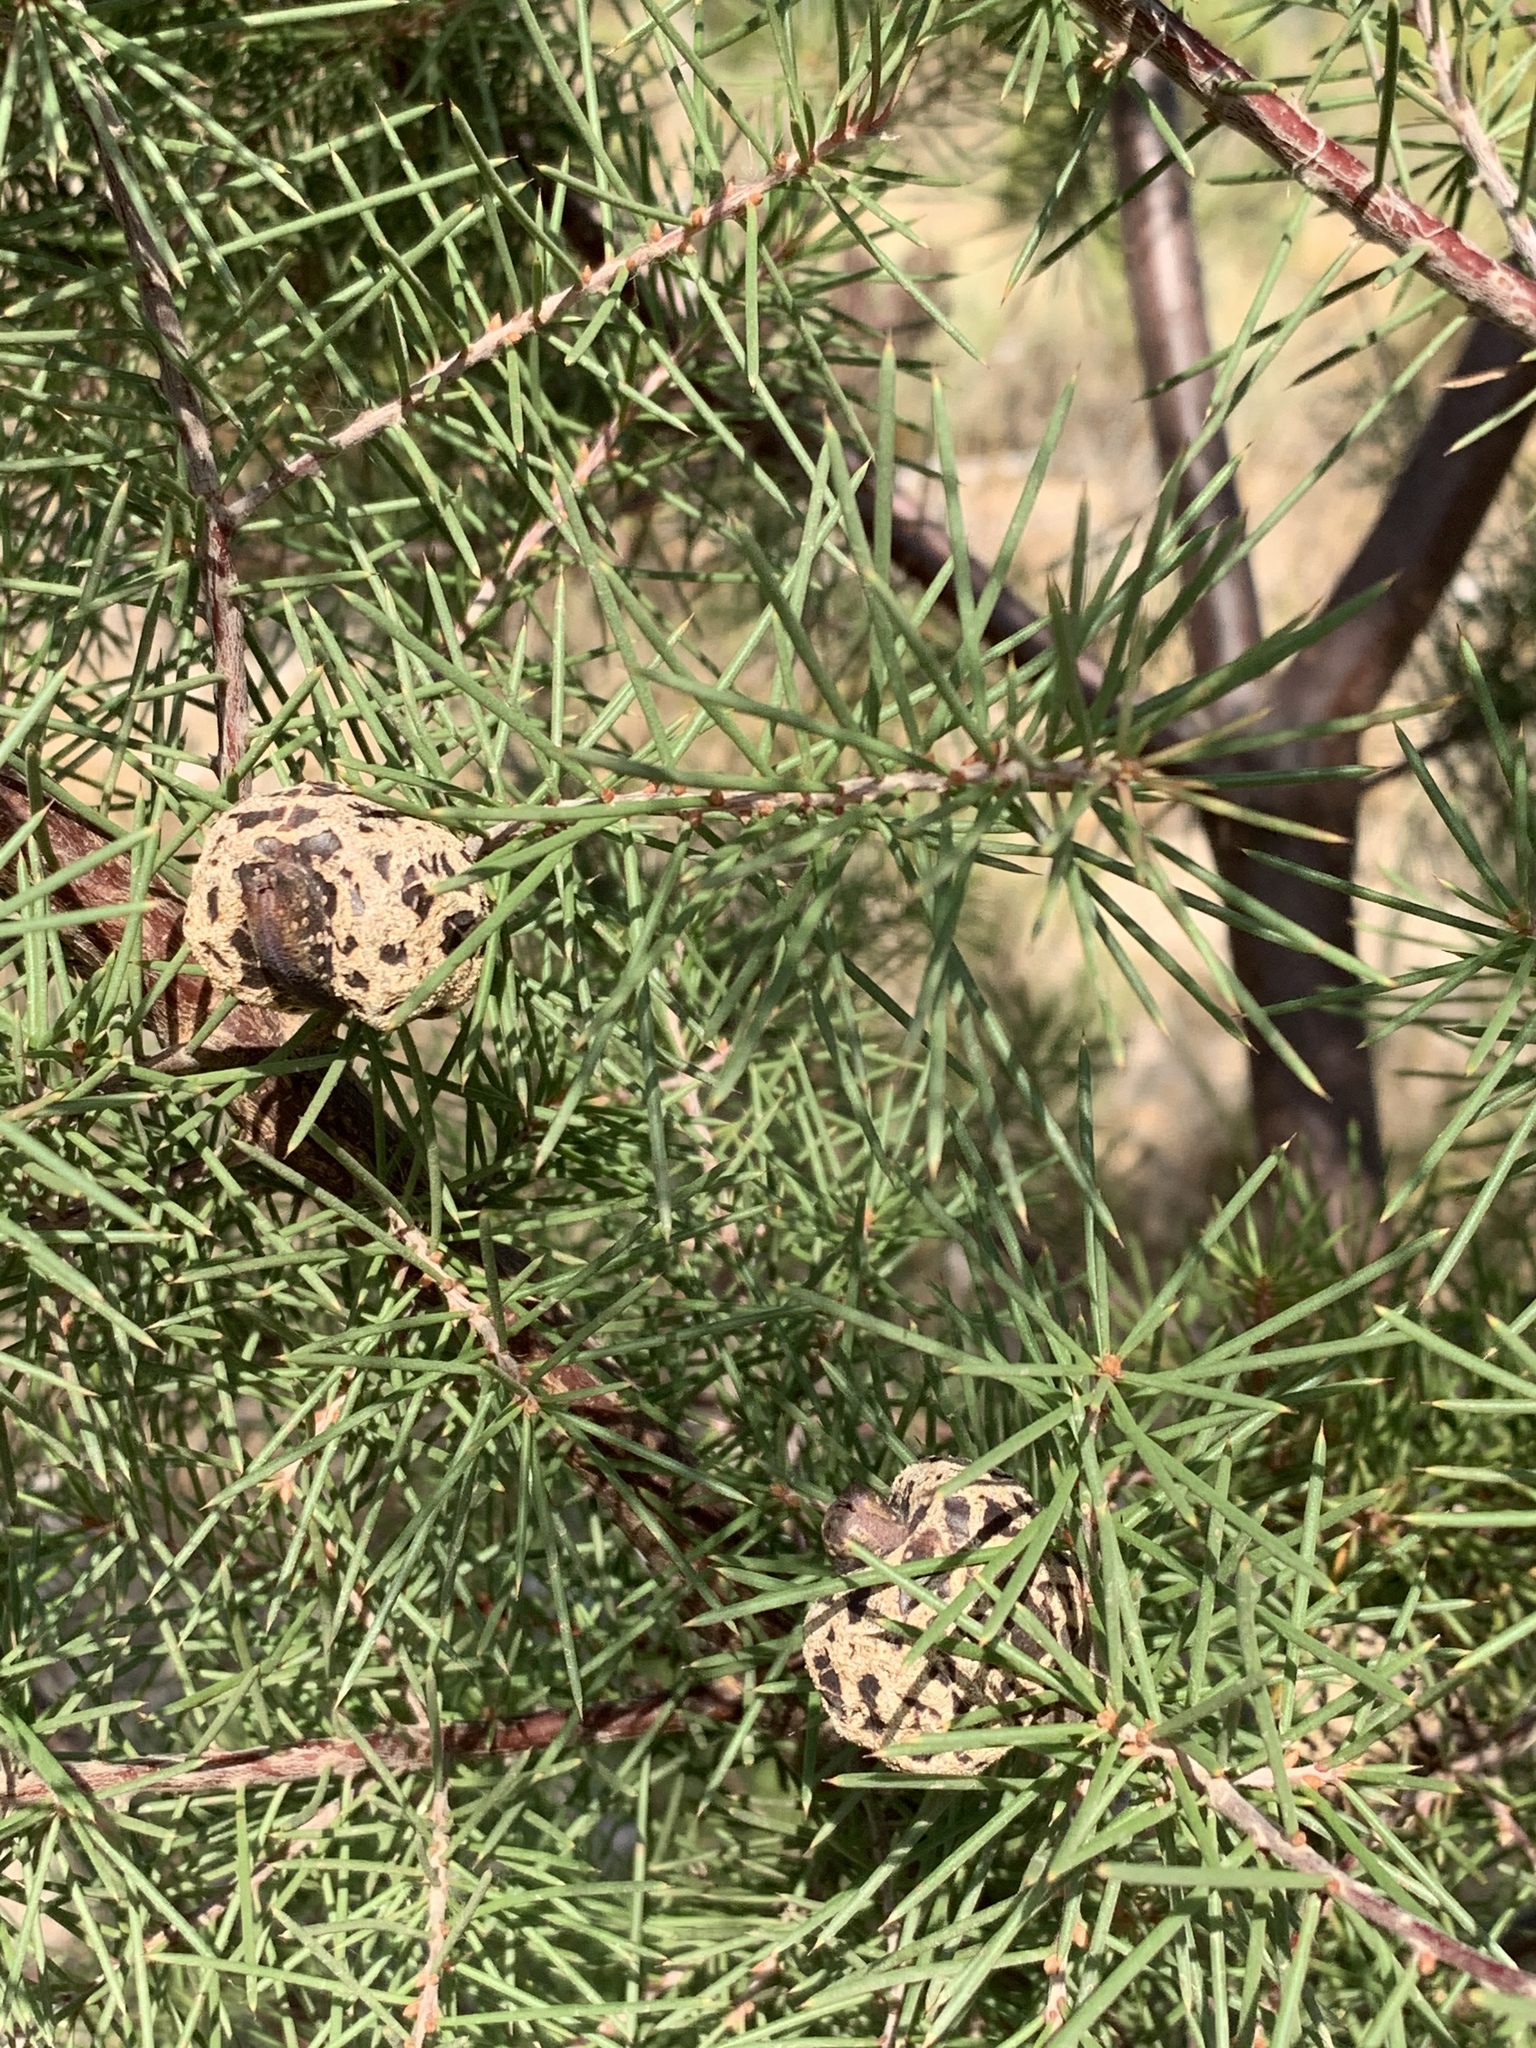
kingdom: Plantae
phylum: Tracheophyta
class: Magnoliopsida
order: Proteales
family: Proteaceae
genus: Hakea
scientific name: Hakea sericea
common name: Needle bush
